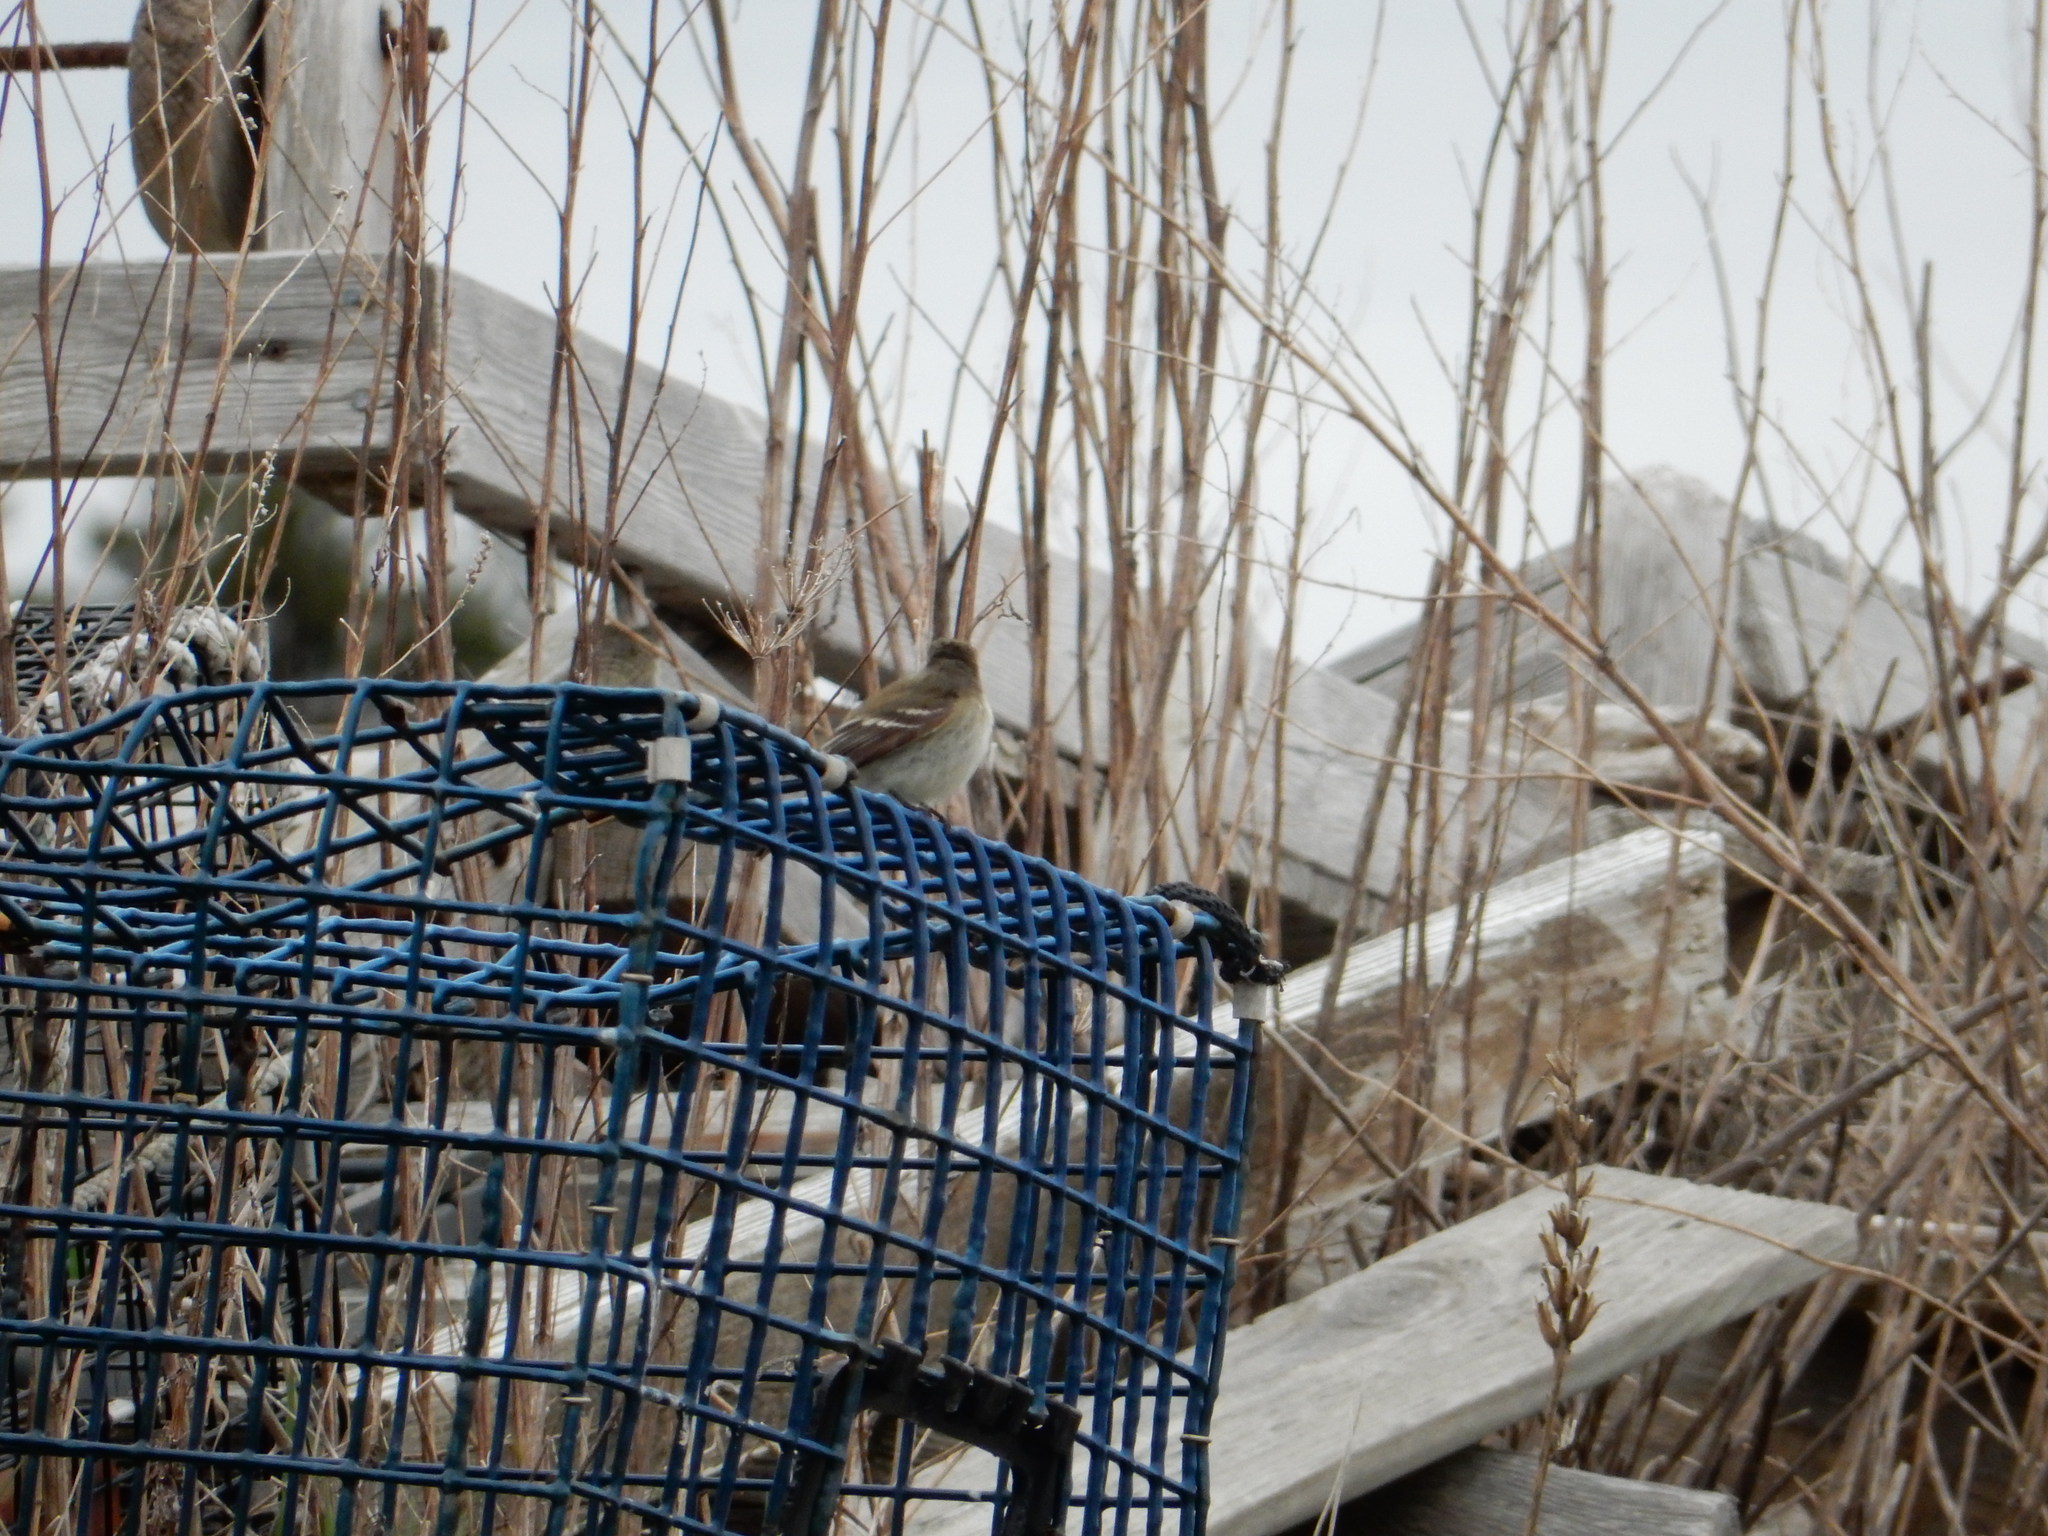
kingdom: Animalia
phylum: Chordata
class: Aves
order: Passeriformes
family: Tyrannidae
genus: Empidonax
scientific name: Empidonax minimus
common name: Least flycatcher
